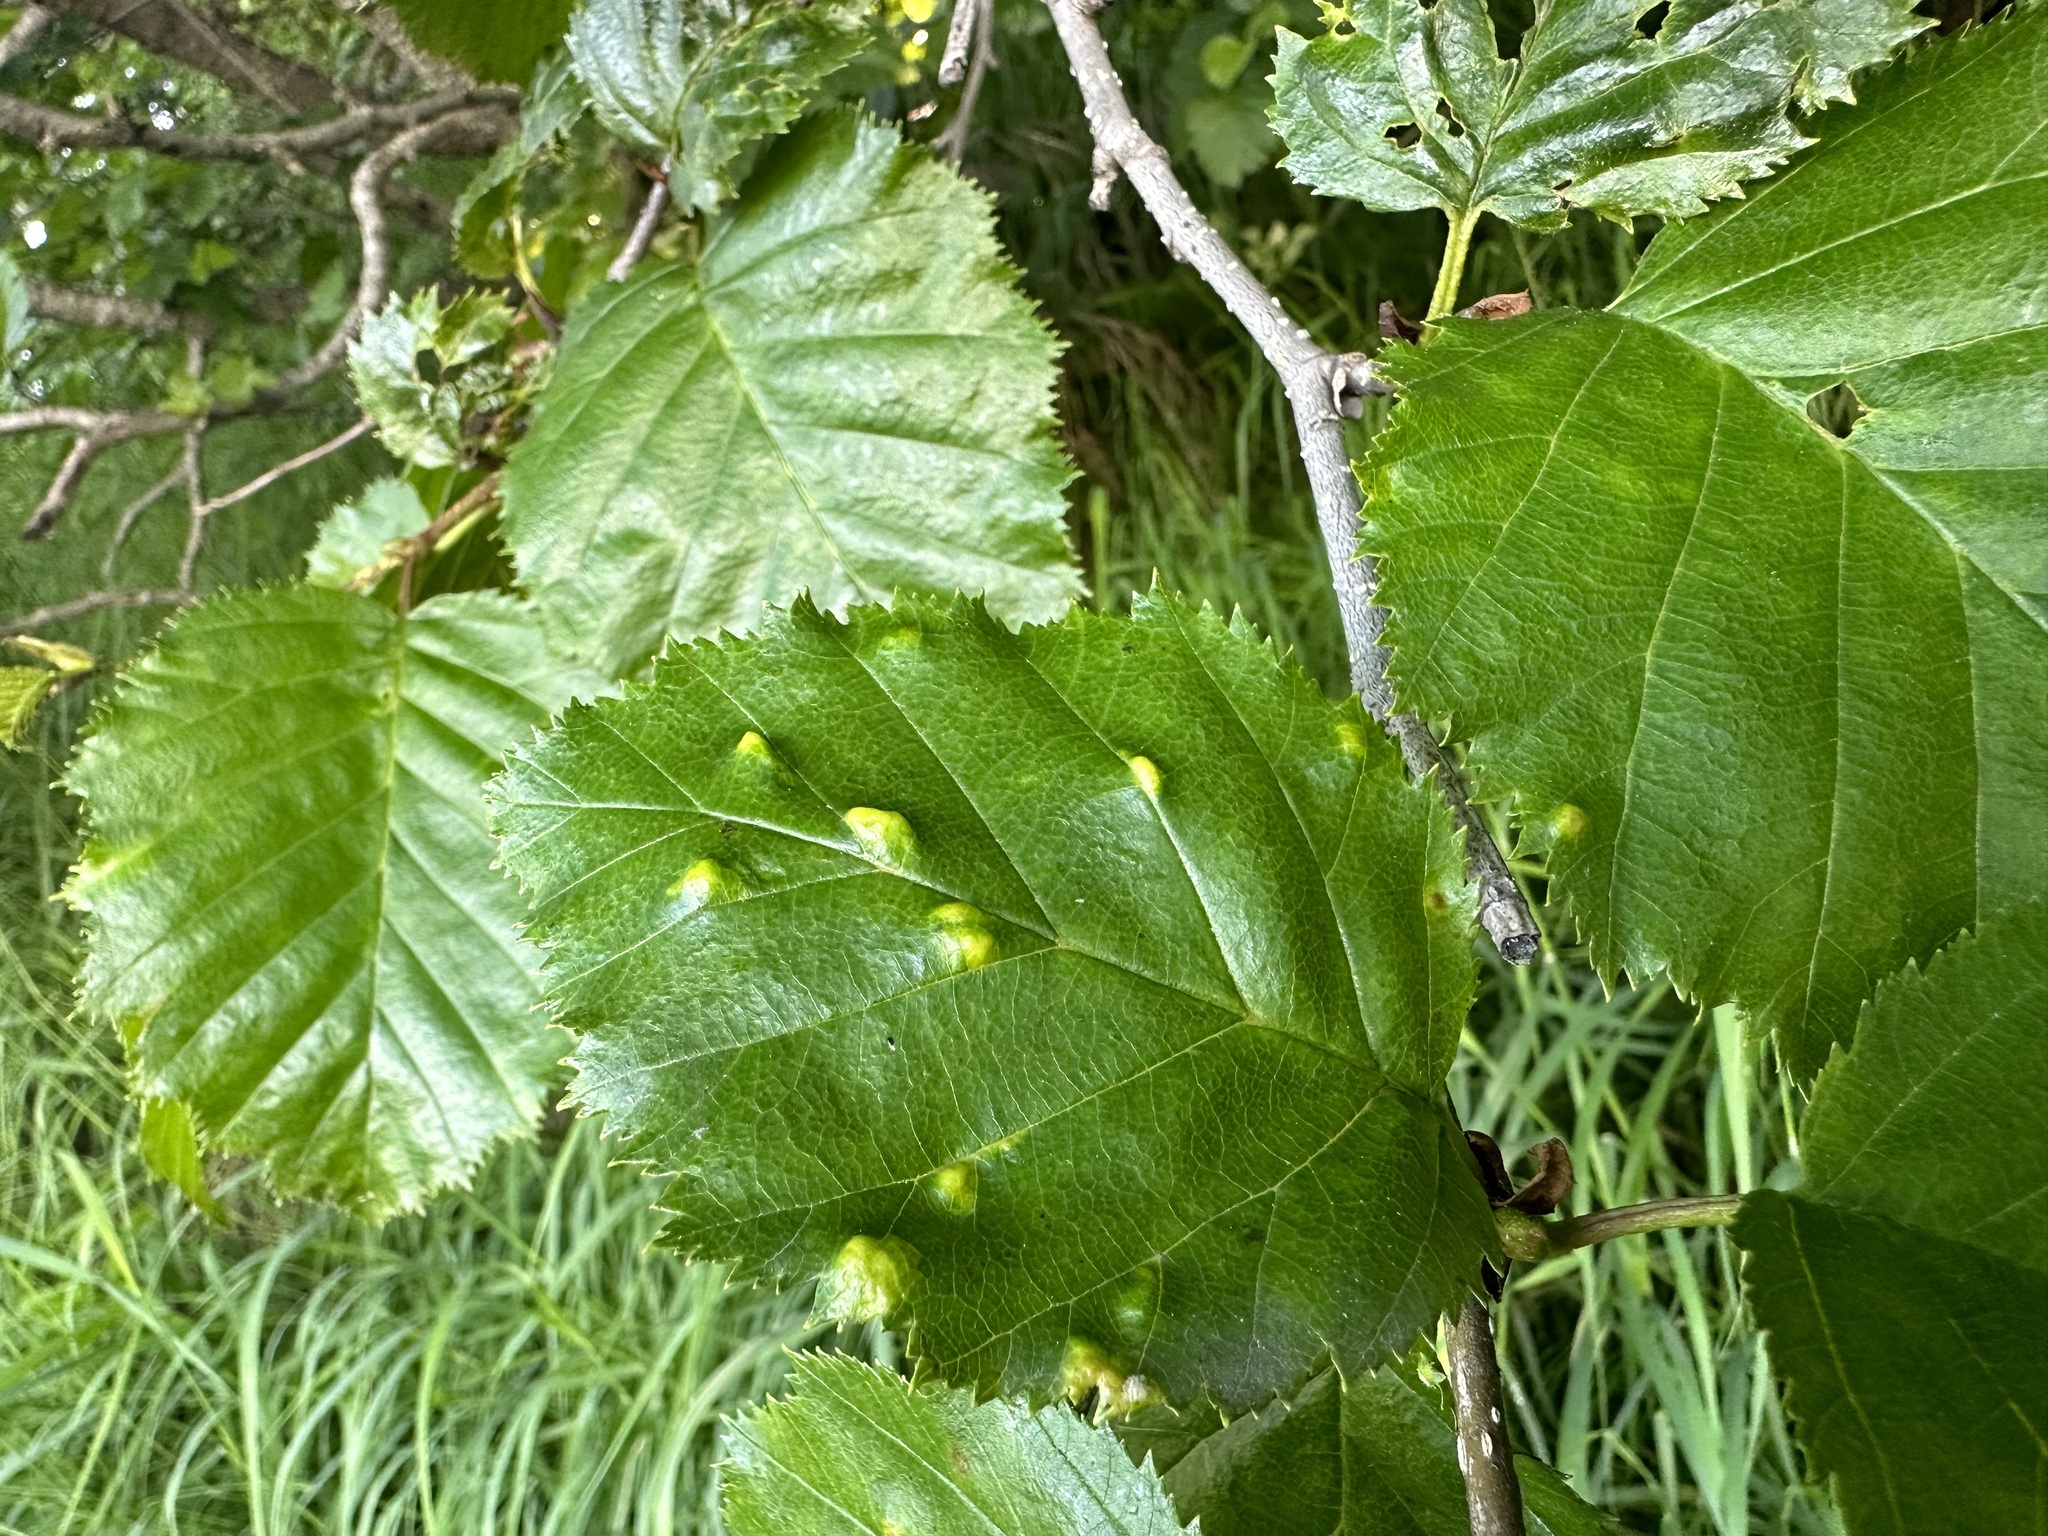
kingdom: Animalia
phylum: Arthropoda
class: Arachnida
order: Trombidiformes
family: Eriophyidae
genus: Acalitus
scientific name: Acalitus brevitarsus
